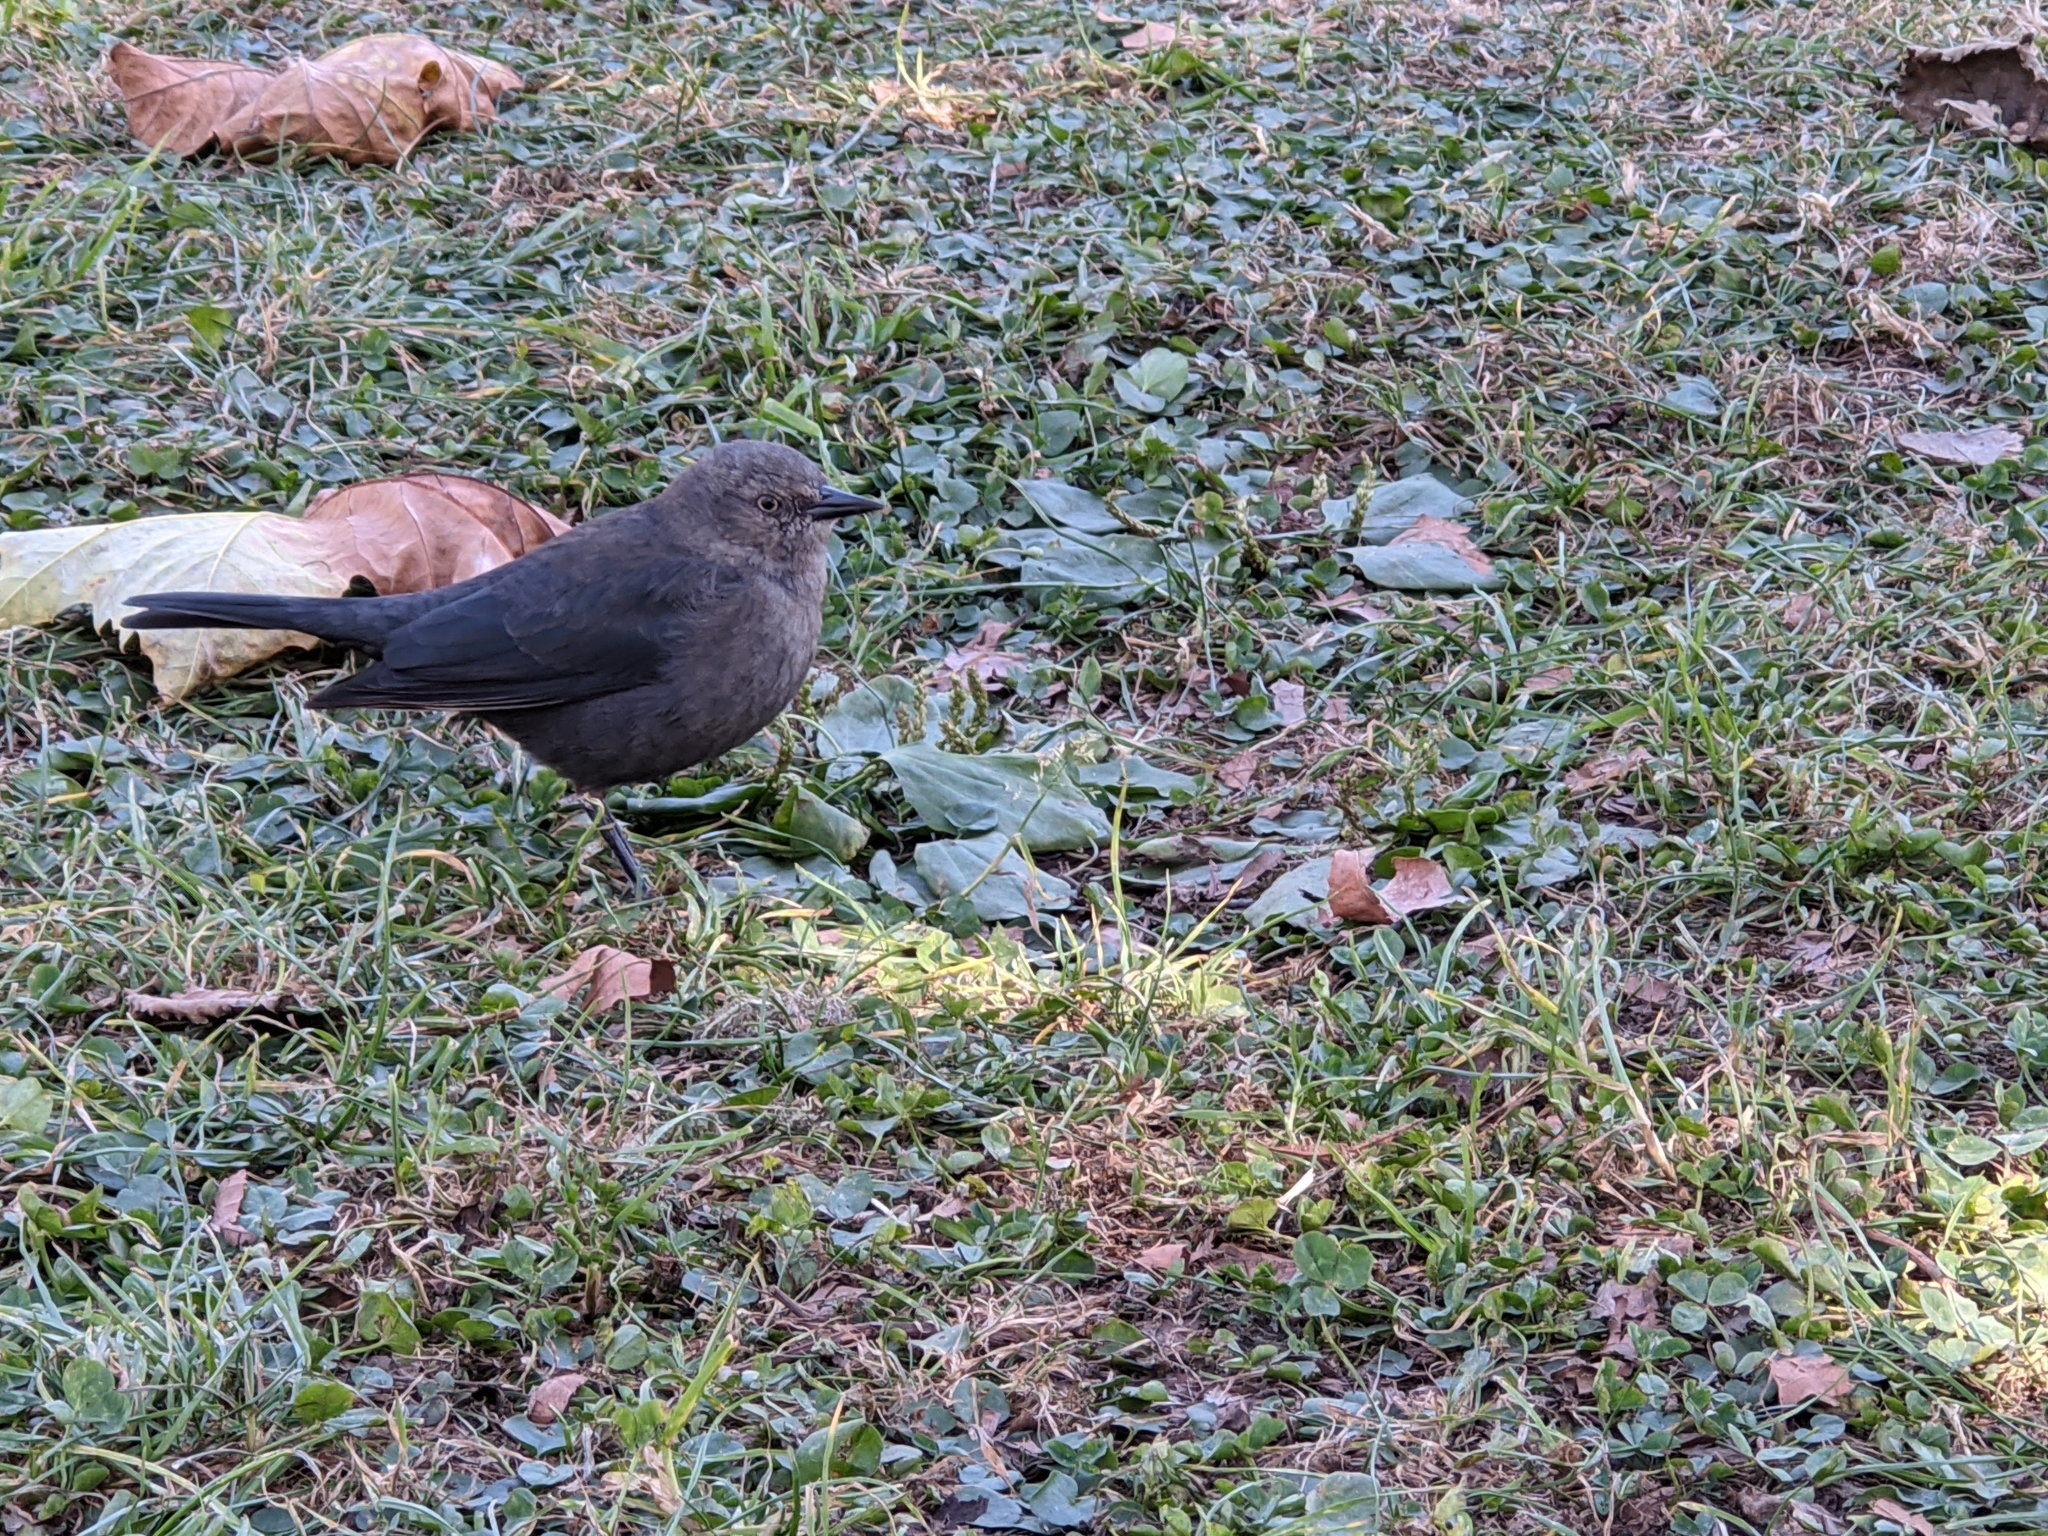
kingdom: Animalia
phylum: Chordata
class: Aves
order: Passeriformes
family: Icteridae
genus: Euphagus
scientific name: Euphagus cyanocephalus
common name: Brewer's blackbird
